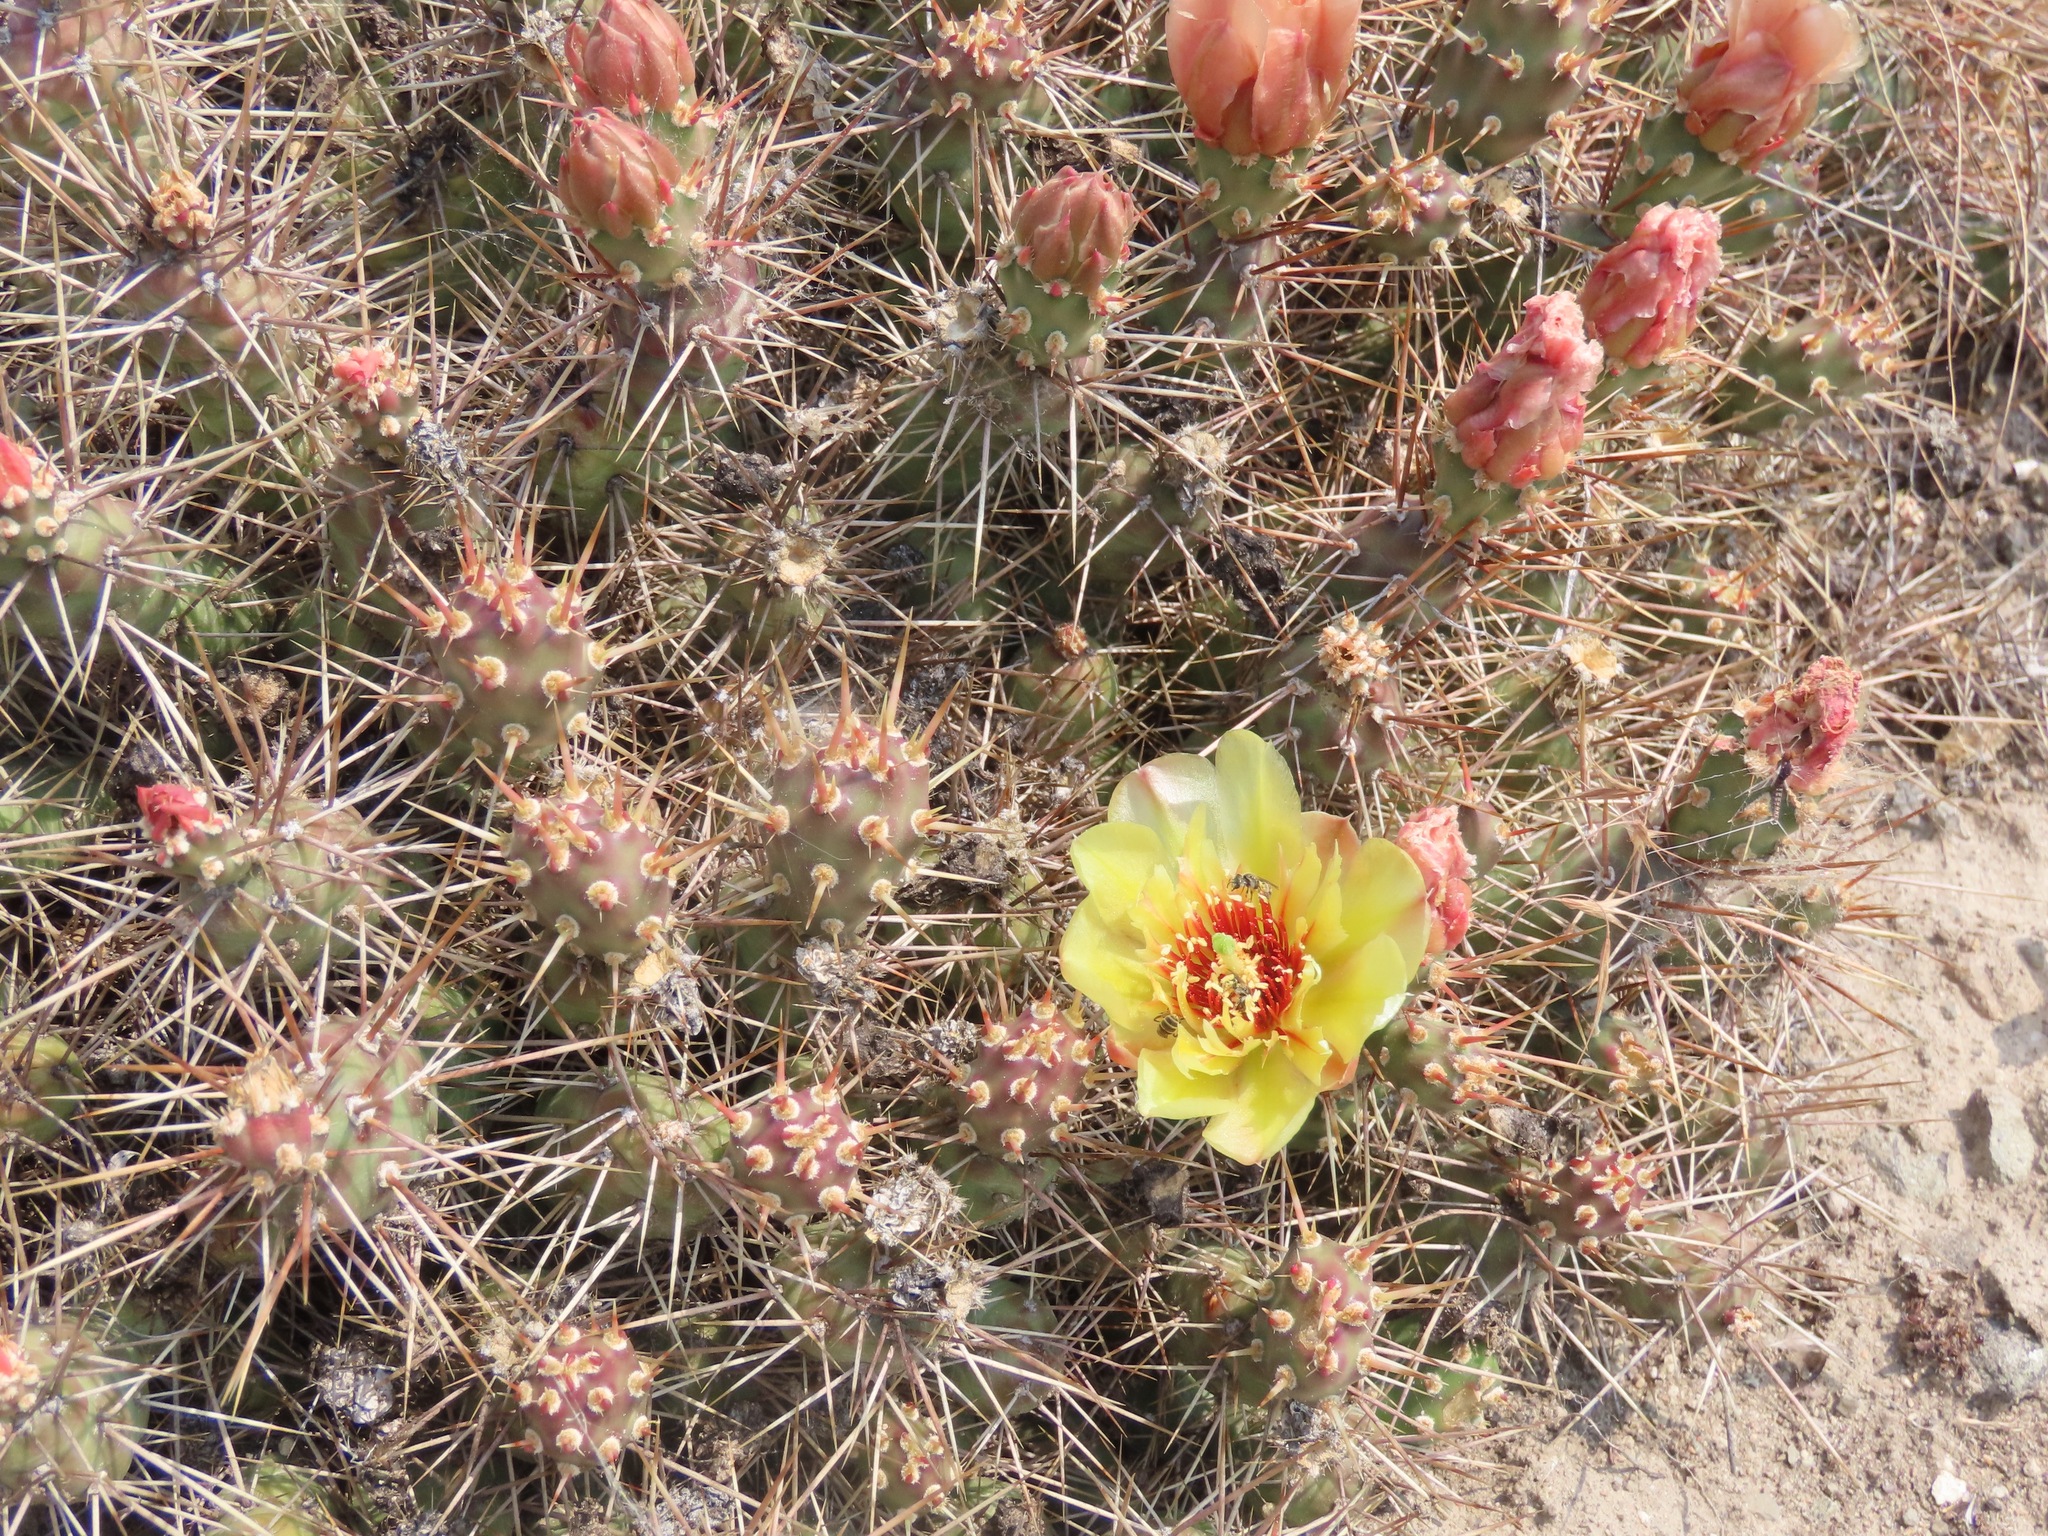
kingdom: Plantae
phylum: Tracheophyta
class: Magnoliopsida
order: Caryophyllales
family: Cactaceae
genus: Opuntia
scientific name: Opuntia fragilis
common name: Brittle cactus
